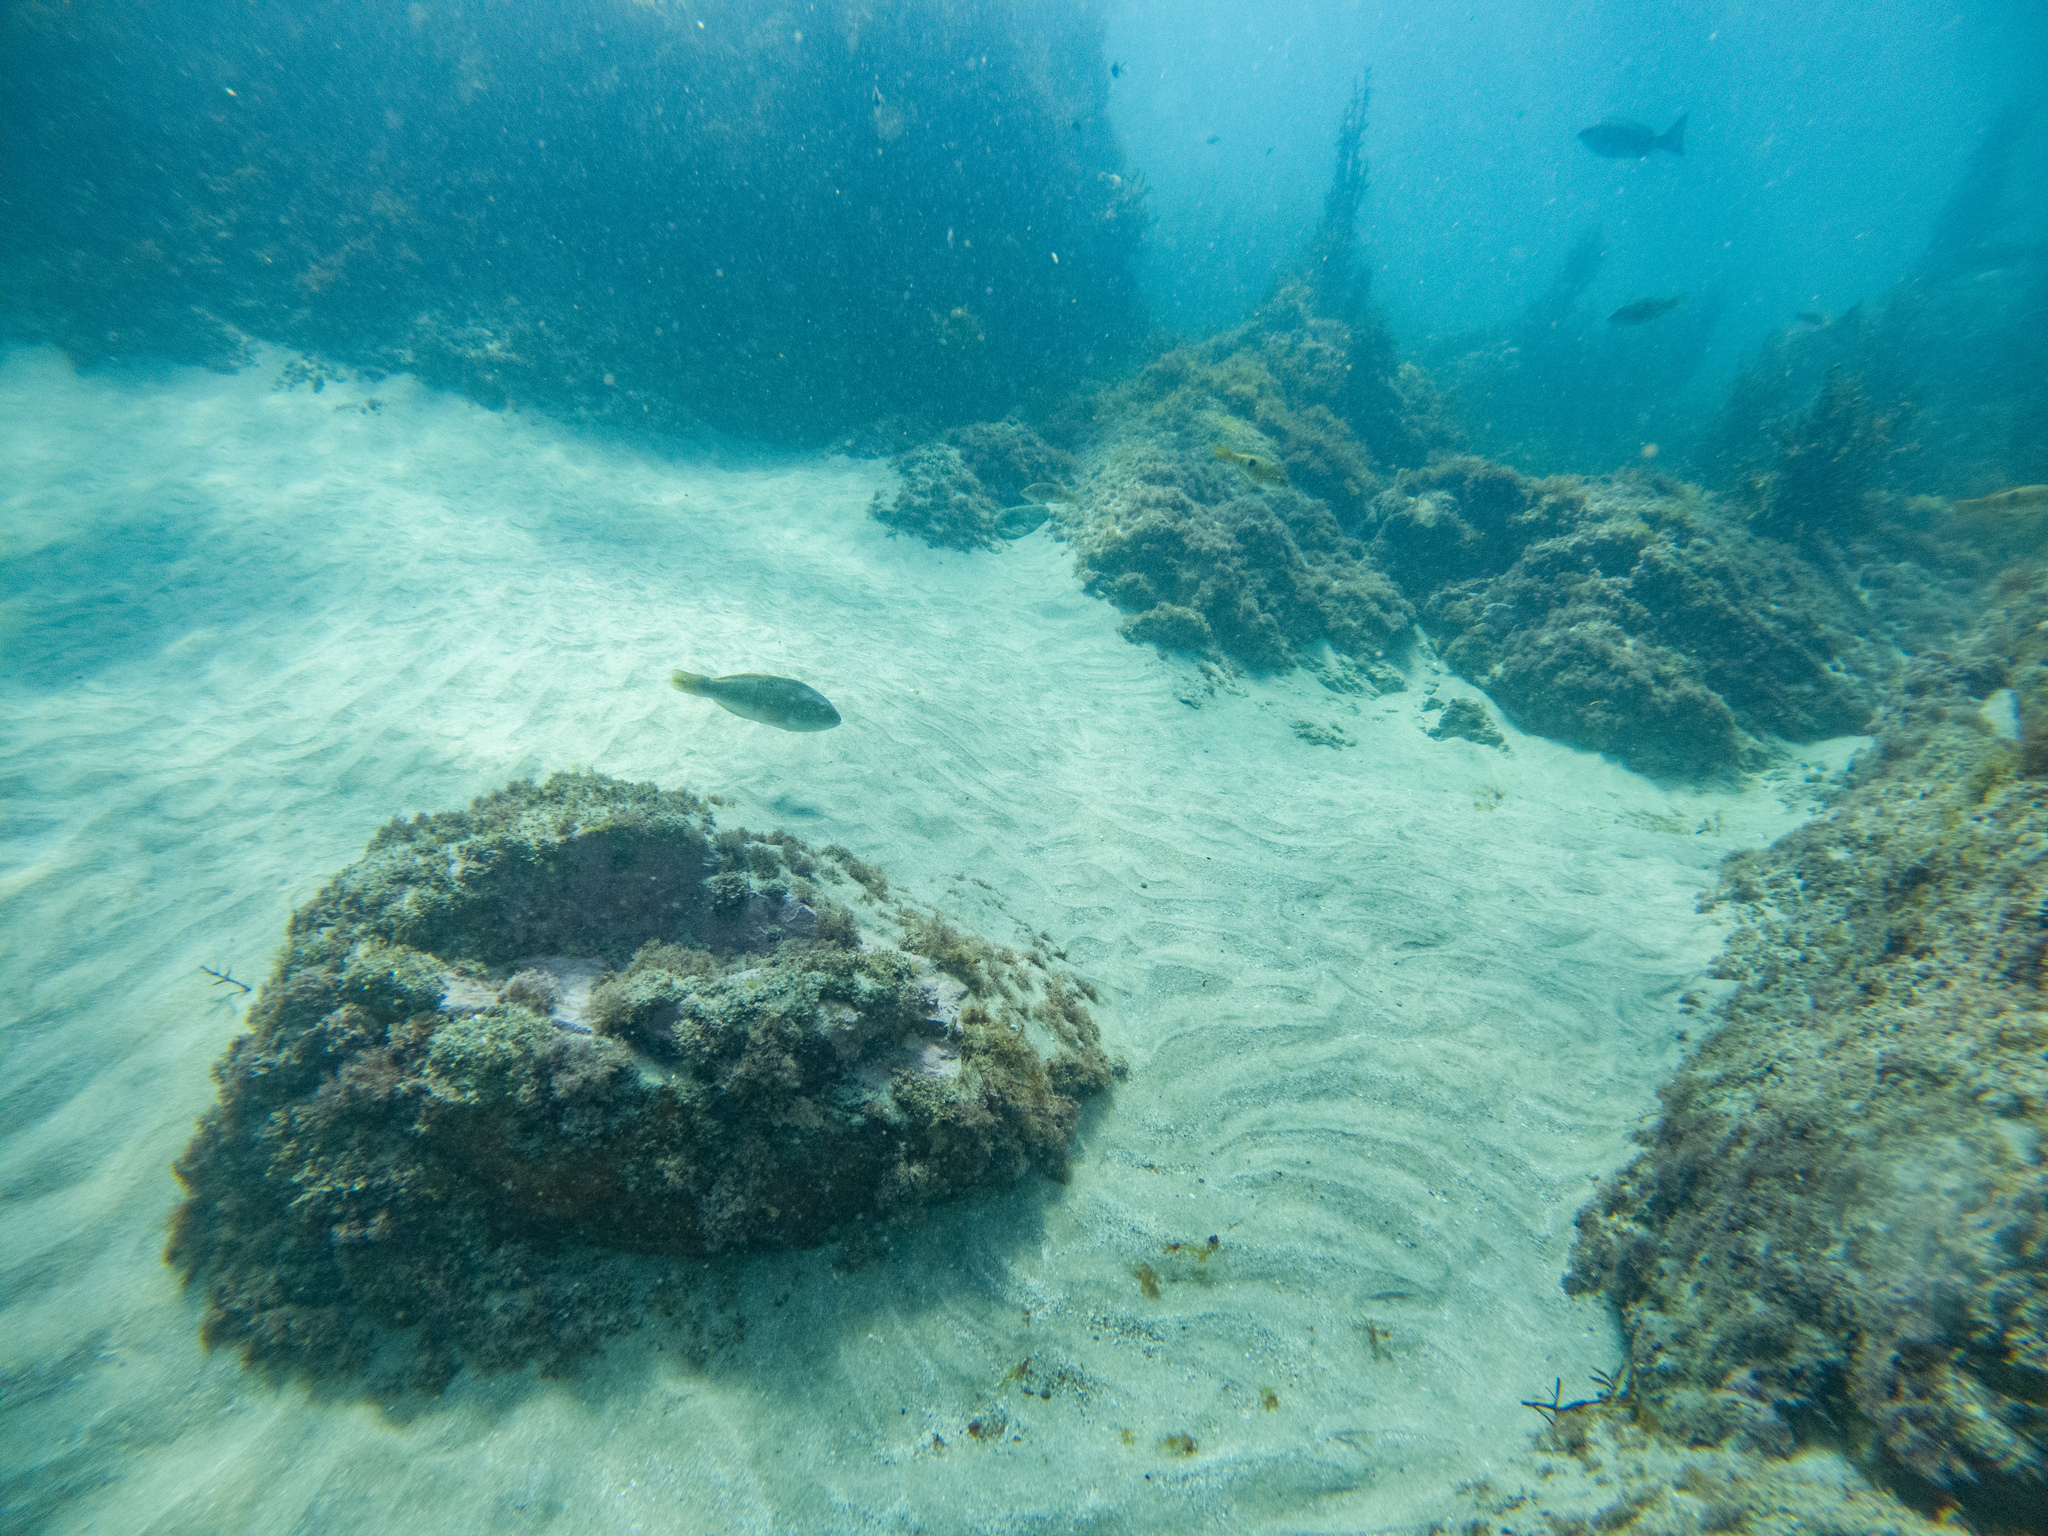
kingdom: Animalia
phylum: Chordata
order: Perciformes
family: Labridae
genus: Notolabrus
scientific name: Notolabrus celidotus
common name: Spotty
